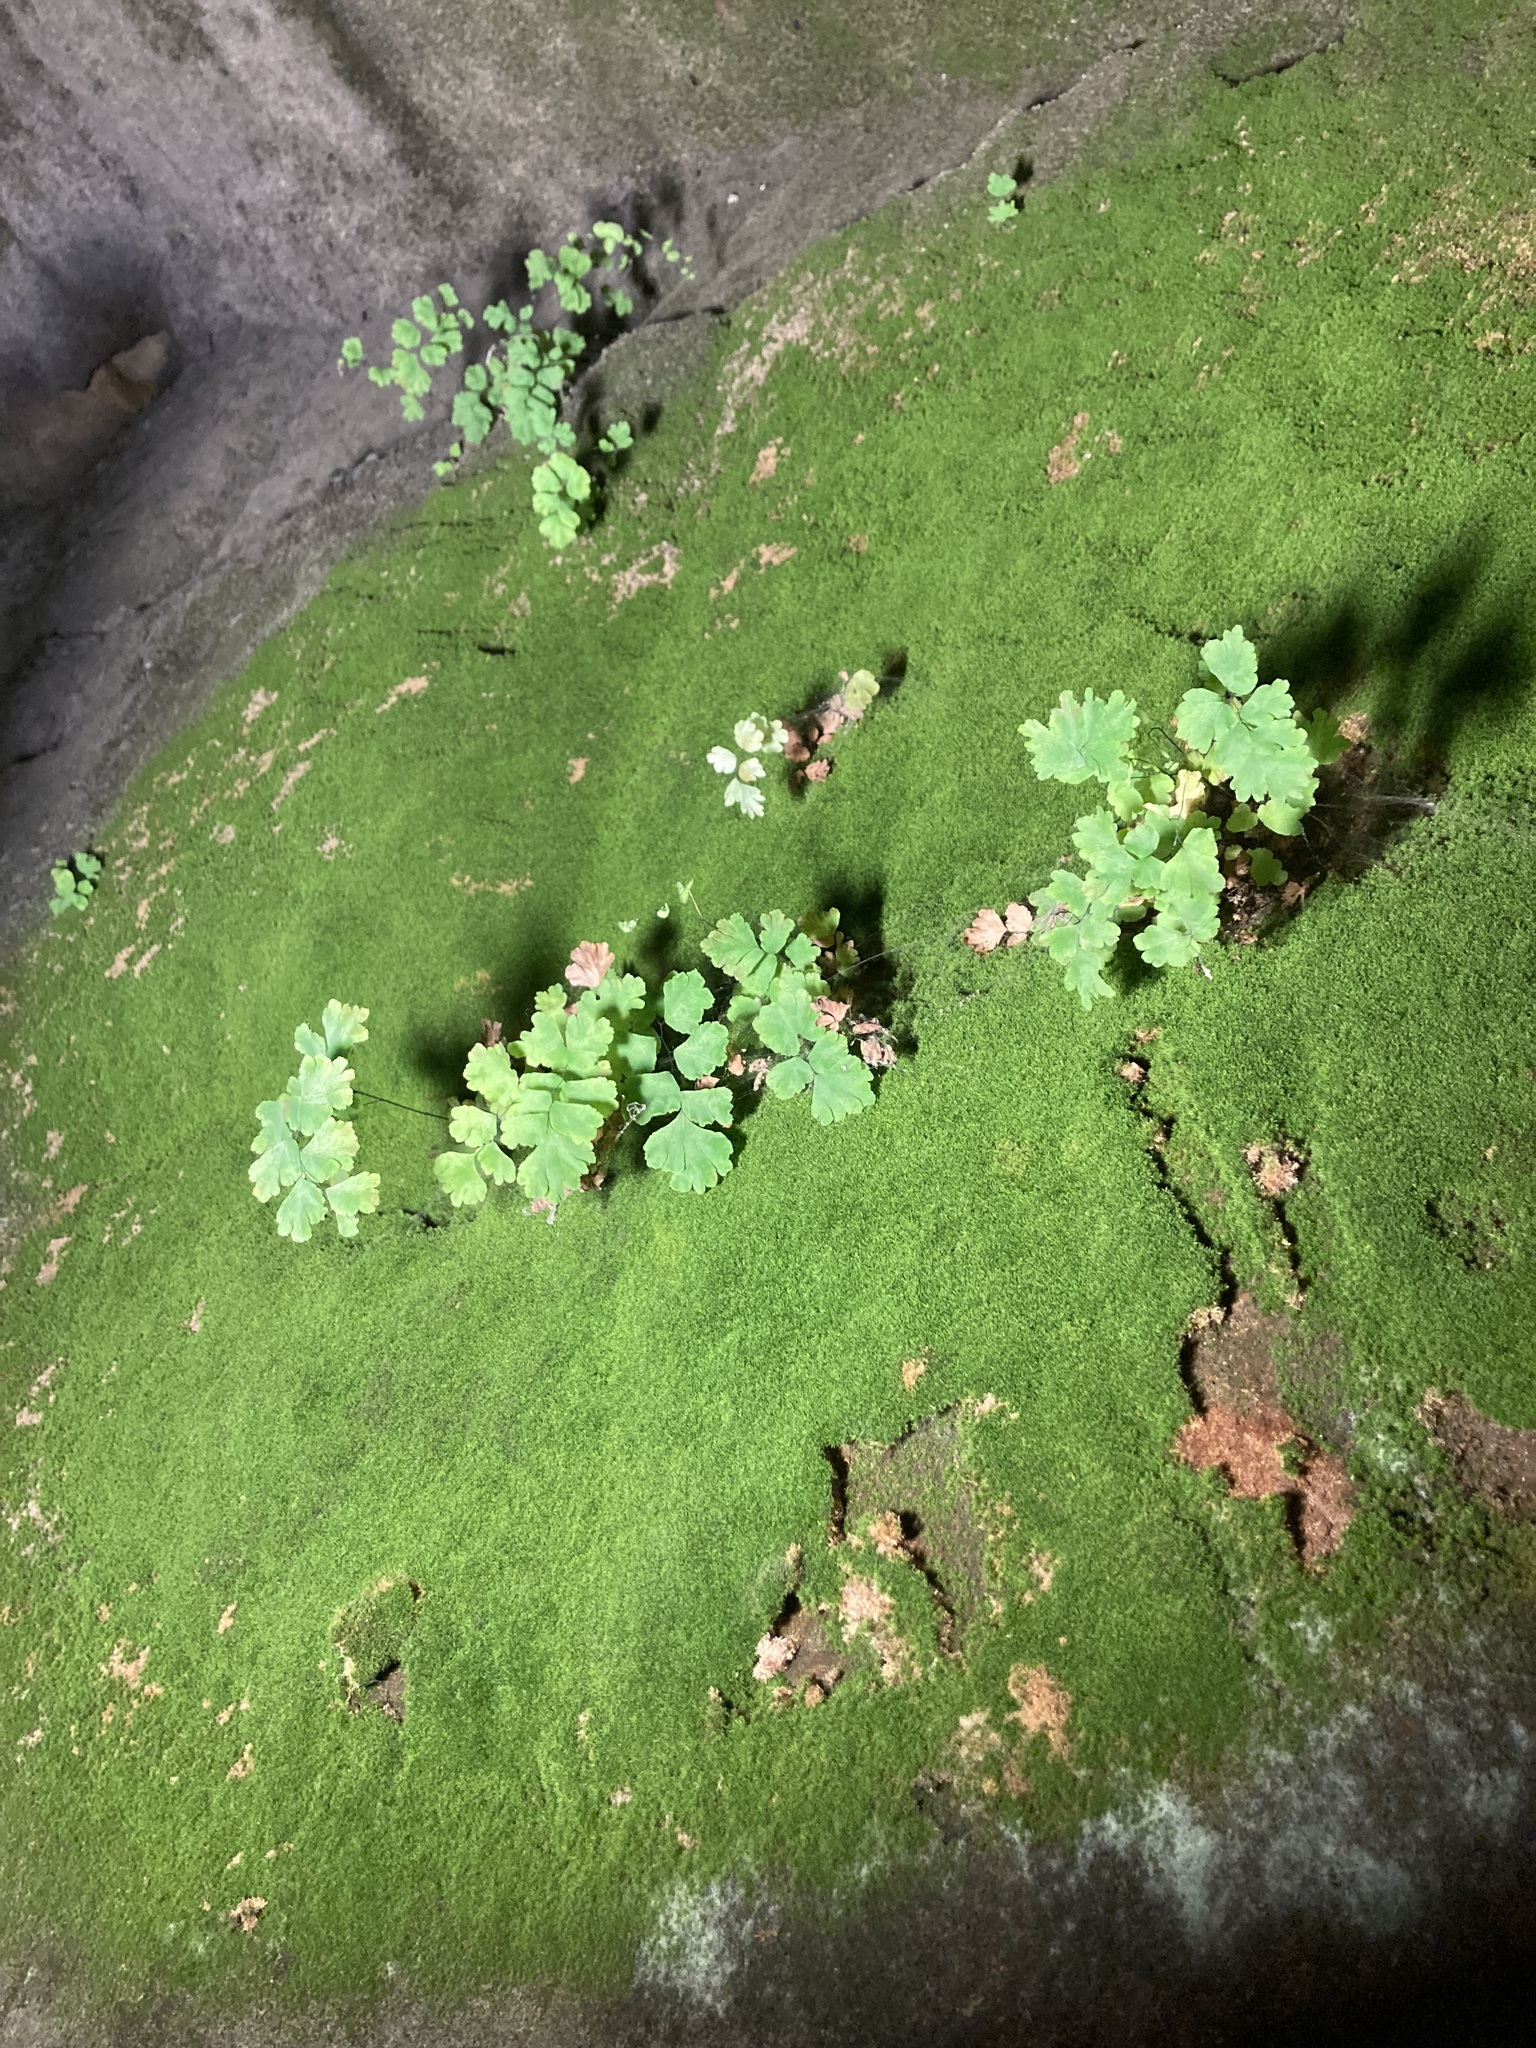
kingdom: Plantae
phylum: Tracheophyta
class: Polypodiopsida
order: Polypodiales
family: Pteridaceae
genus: Adiantum
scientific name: Adiantum capillus-veneris
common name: Maidenhair fern
